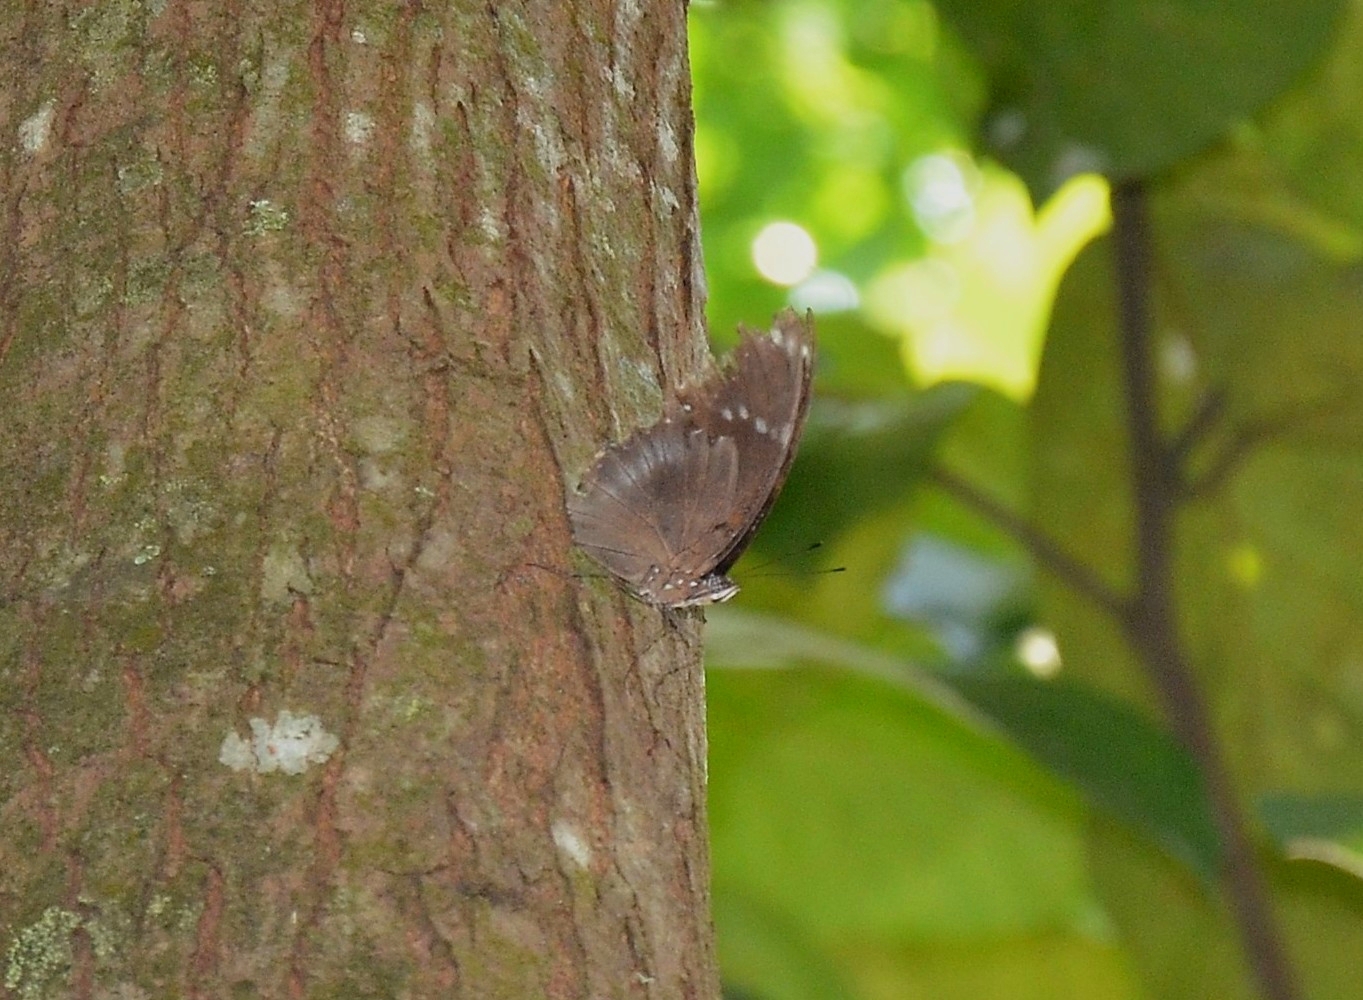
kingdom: Animalia
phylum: Arthropoda
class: Insecta
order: Lepidoptera
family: Nymphalidae
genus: Hypolimnas
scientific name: Hypolimnas bolina
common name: Great eggfly
